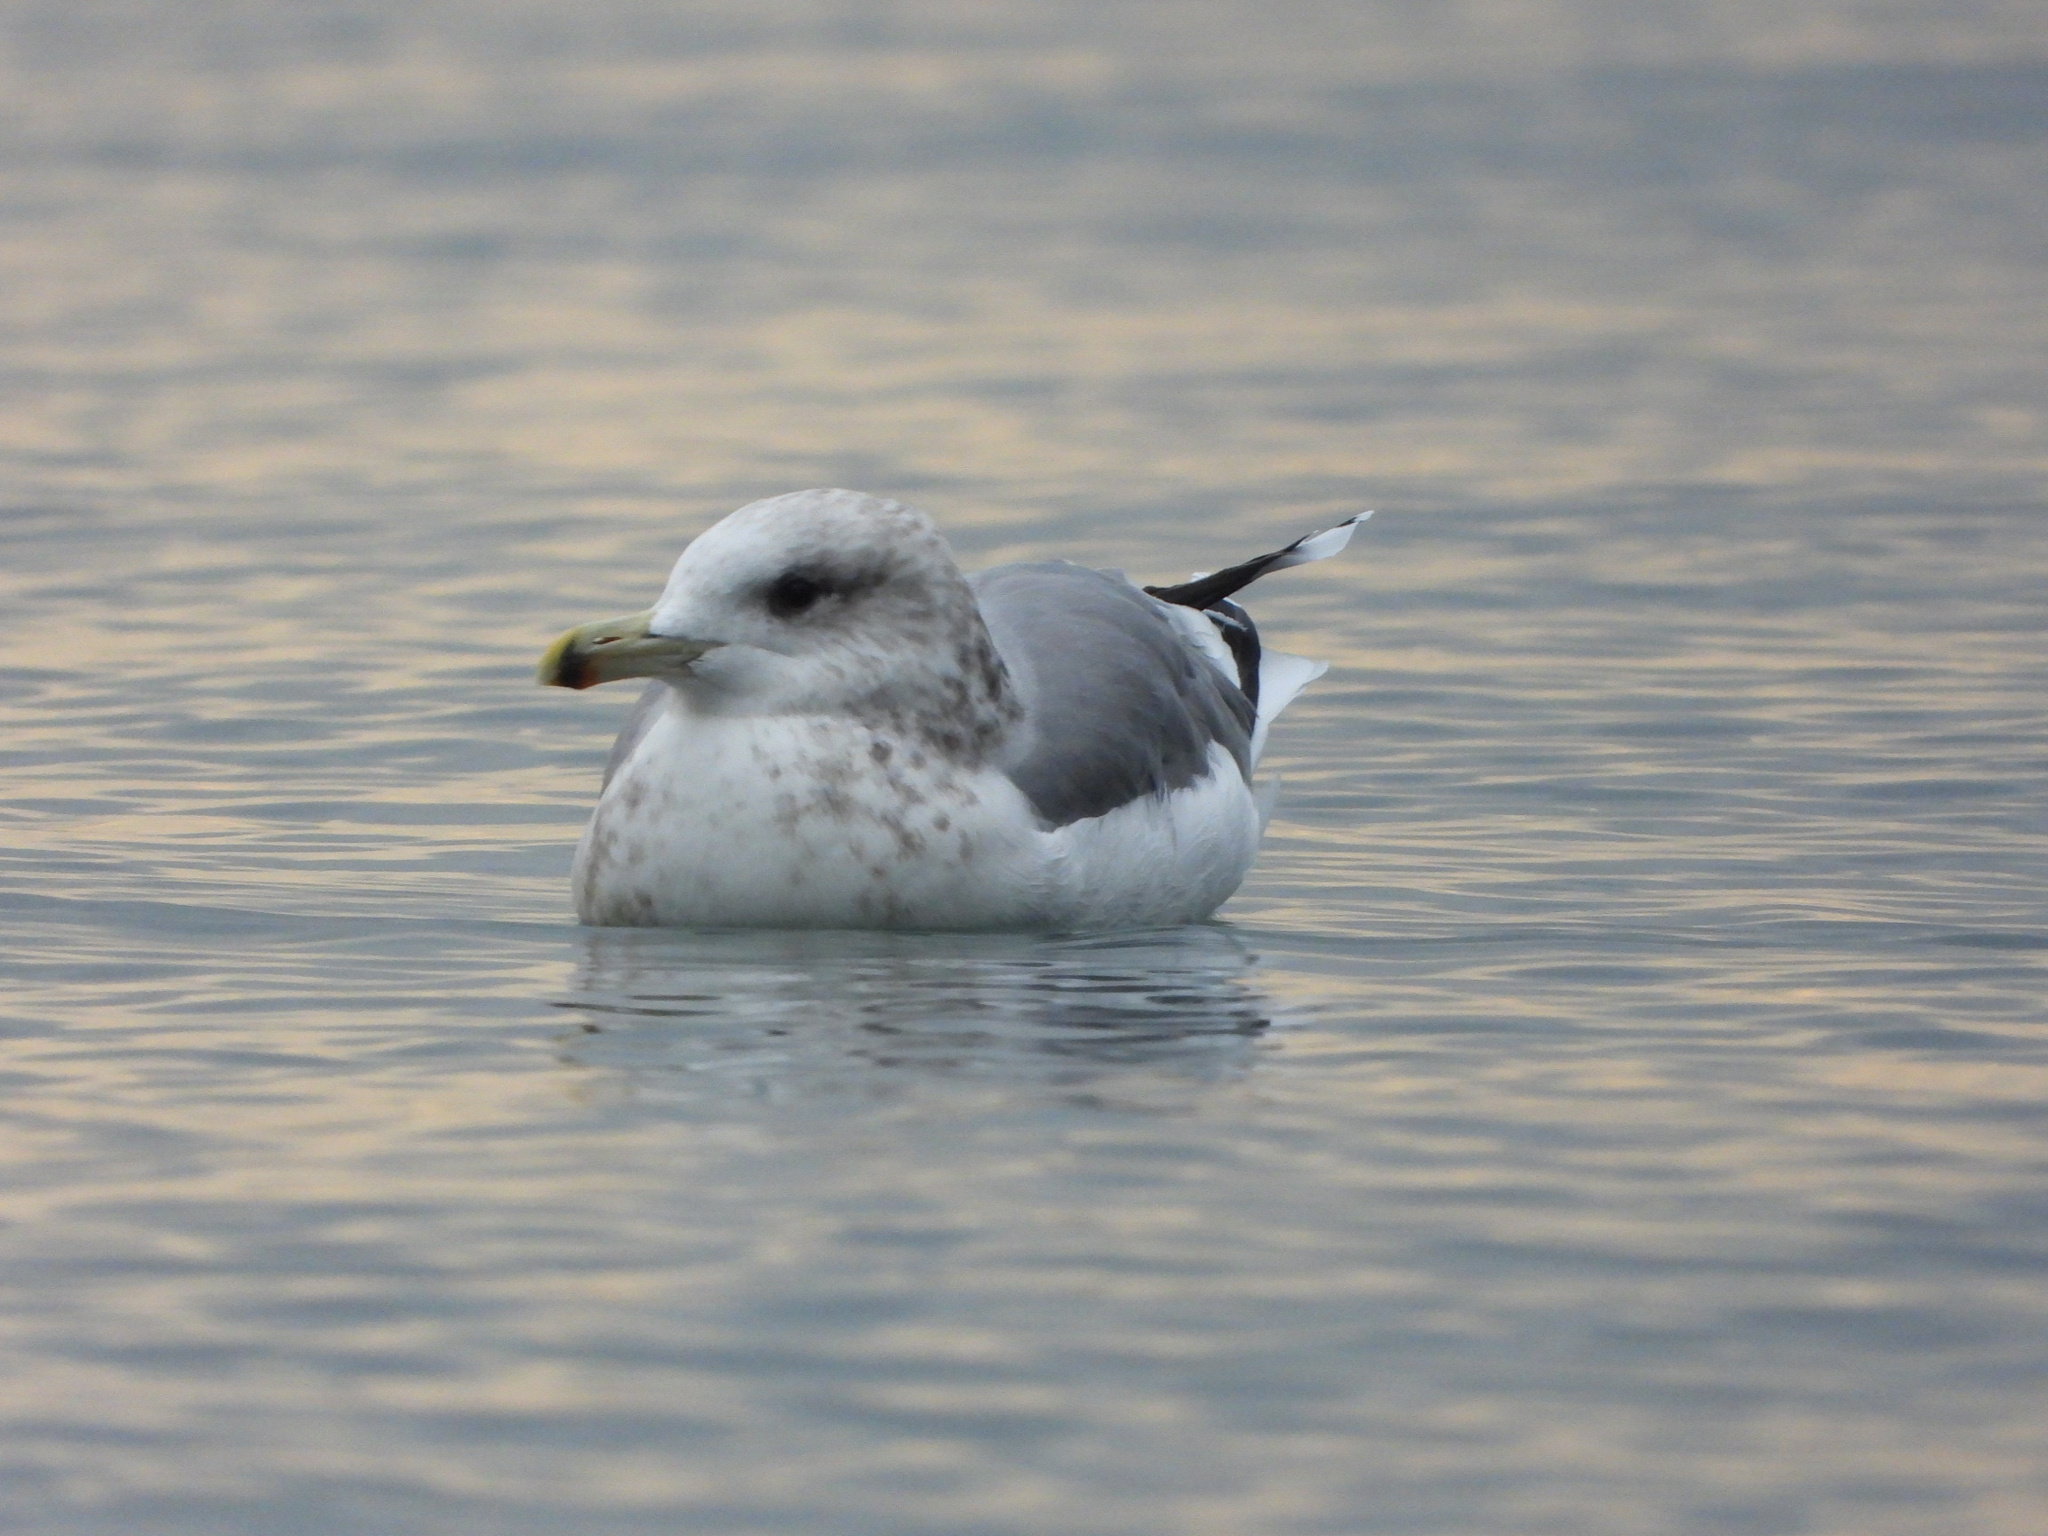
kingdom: Animalia
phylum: Chordata
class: Aves
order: Charadriiformes
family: Laridae
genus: Larus
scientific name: Larus californicus
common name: California gull
